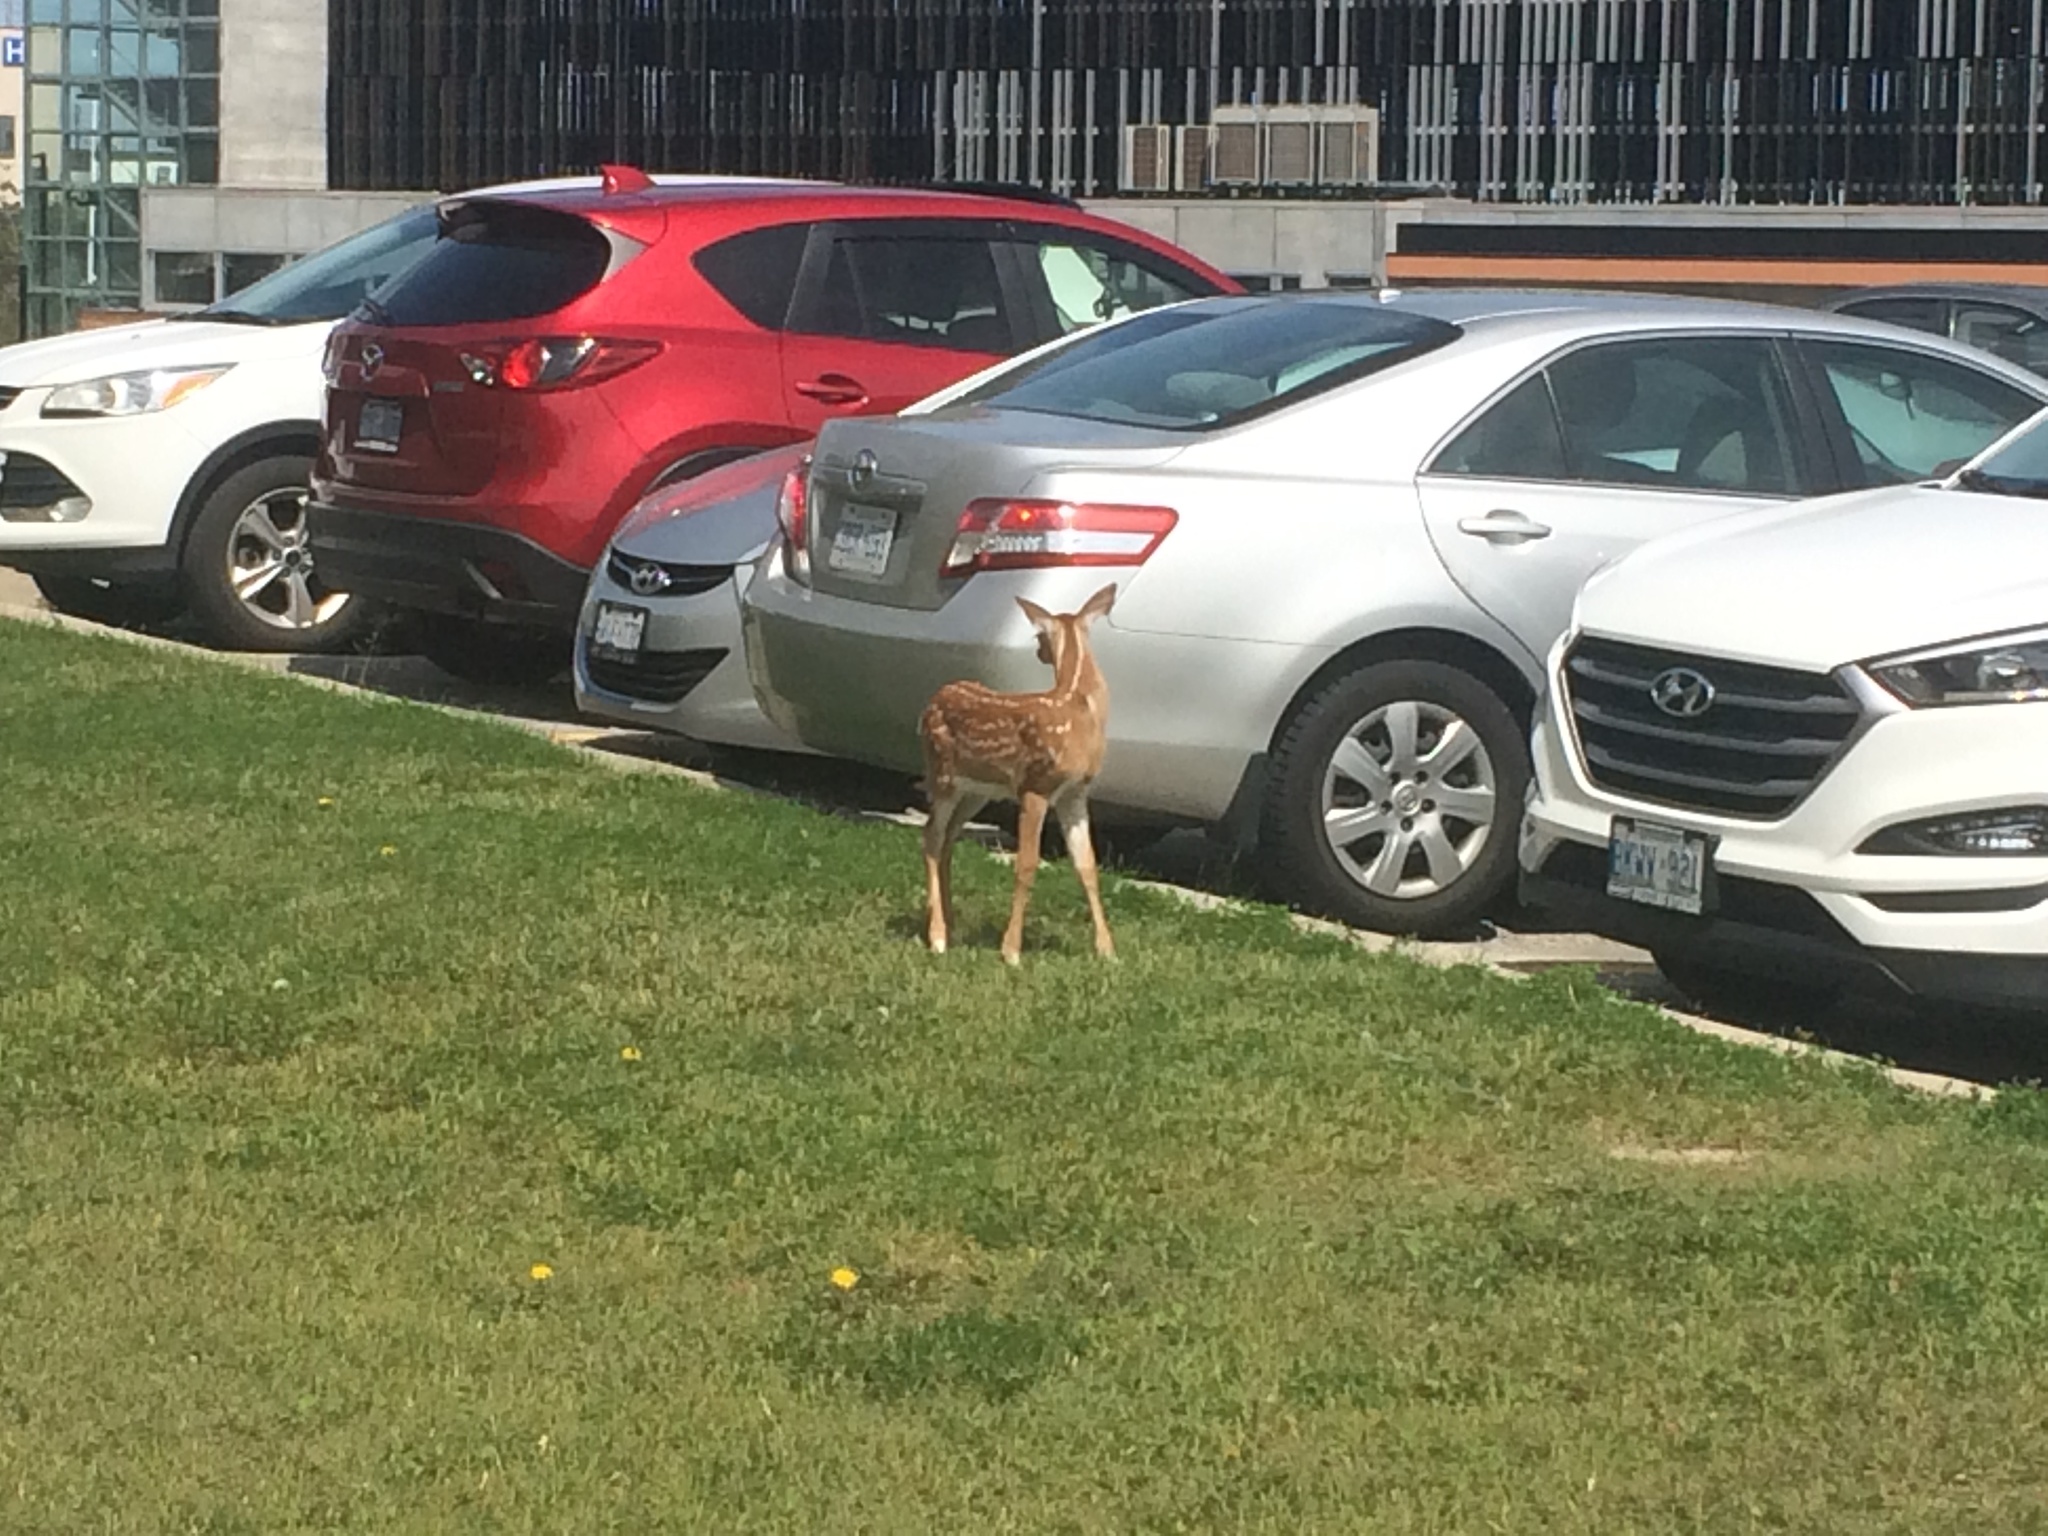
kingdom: Animalia
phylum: Chordata
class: Mammalia
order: Artiodactyla
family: Cervidae
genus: Odocoileus
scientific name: Odocoileus virginianus
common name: White-tailed deer
